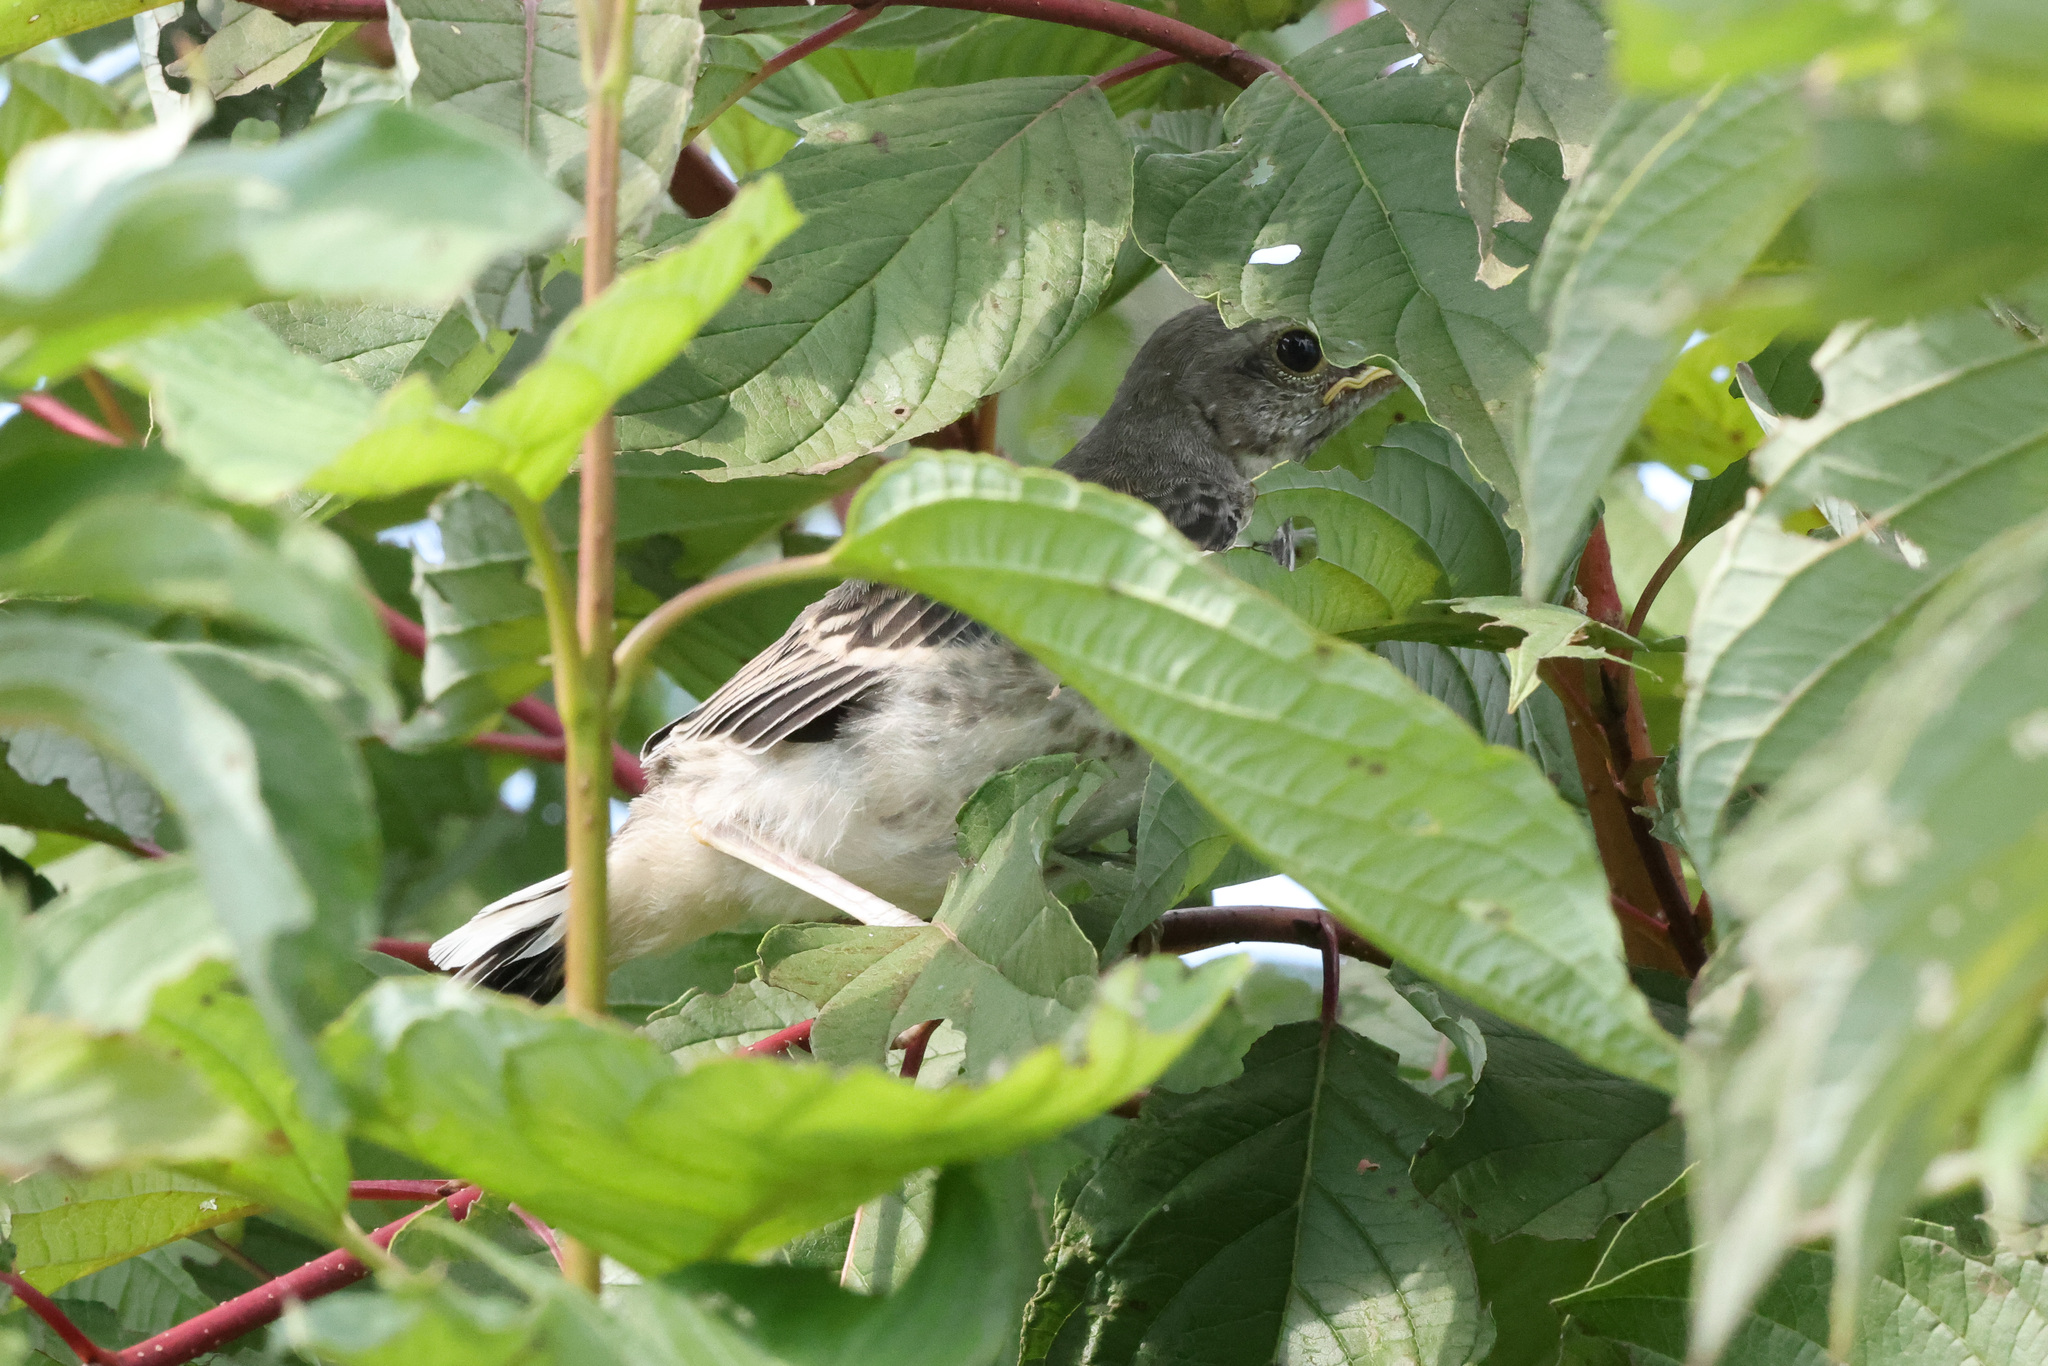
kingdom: Animalia
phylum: Chordata
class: Aves
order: Passeriformes
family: Mimidae
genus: Mimus
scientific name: Mimus polyglottos
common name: Northern mockingbird
